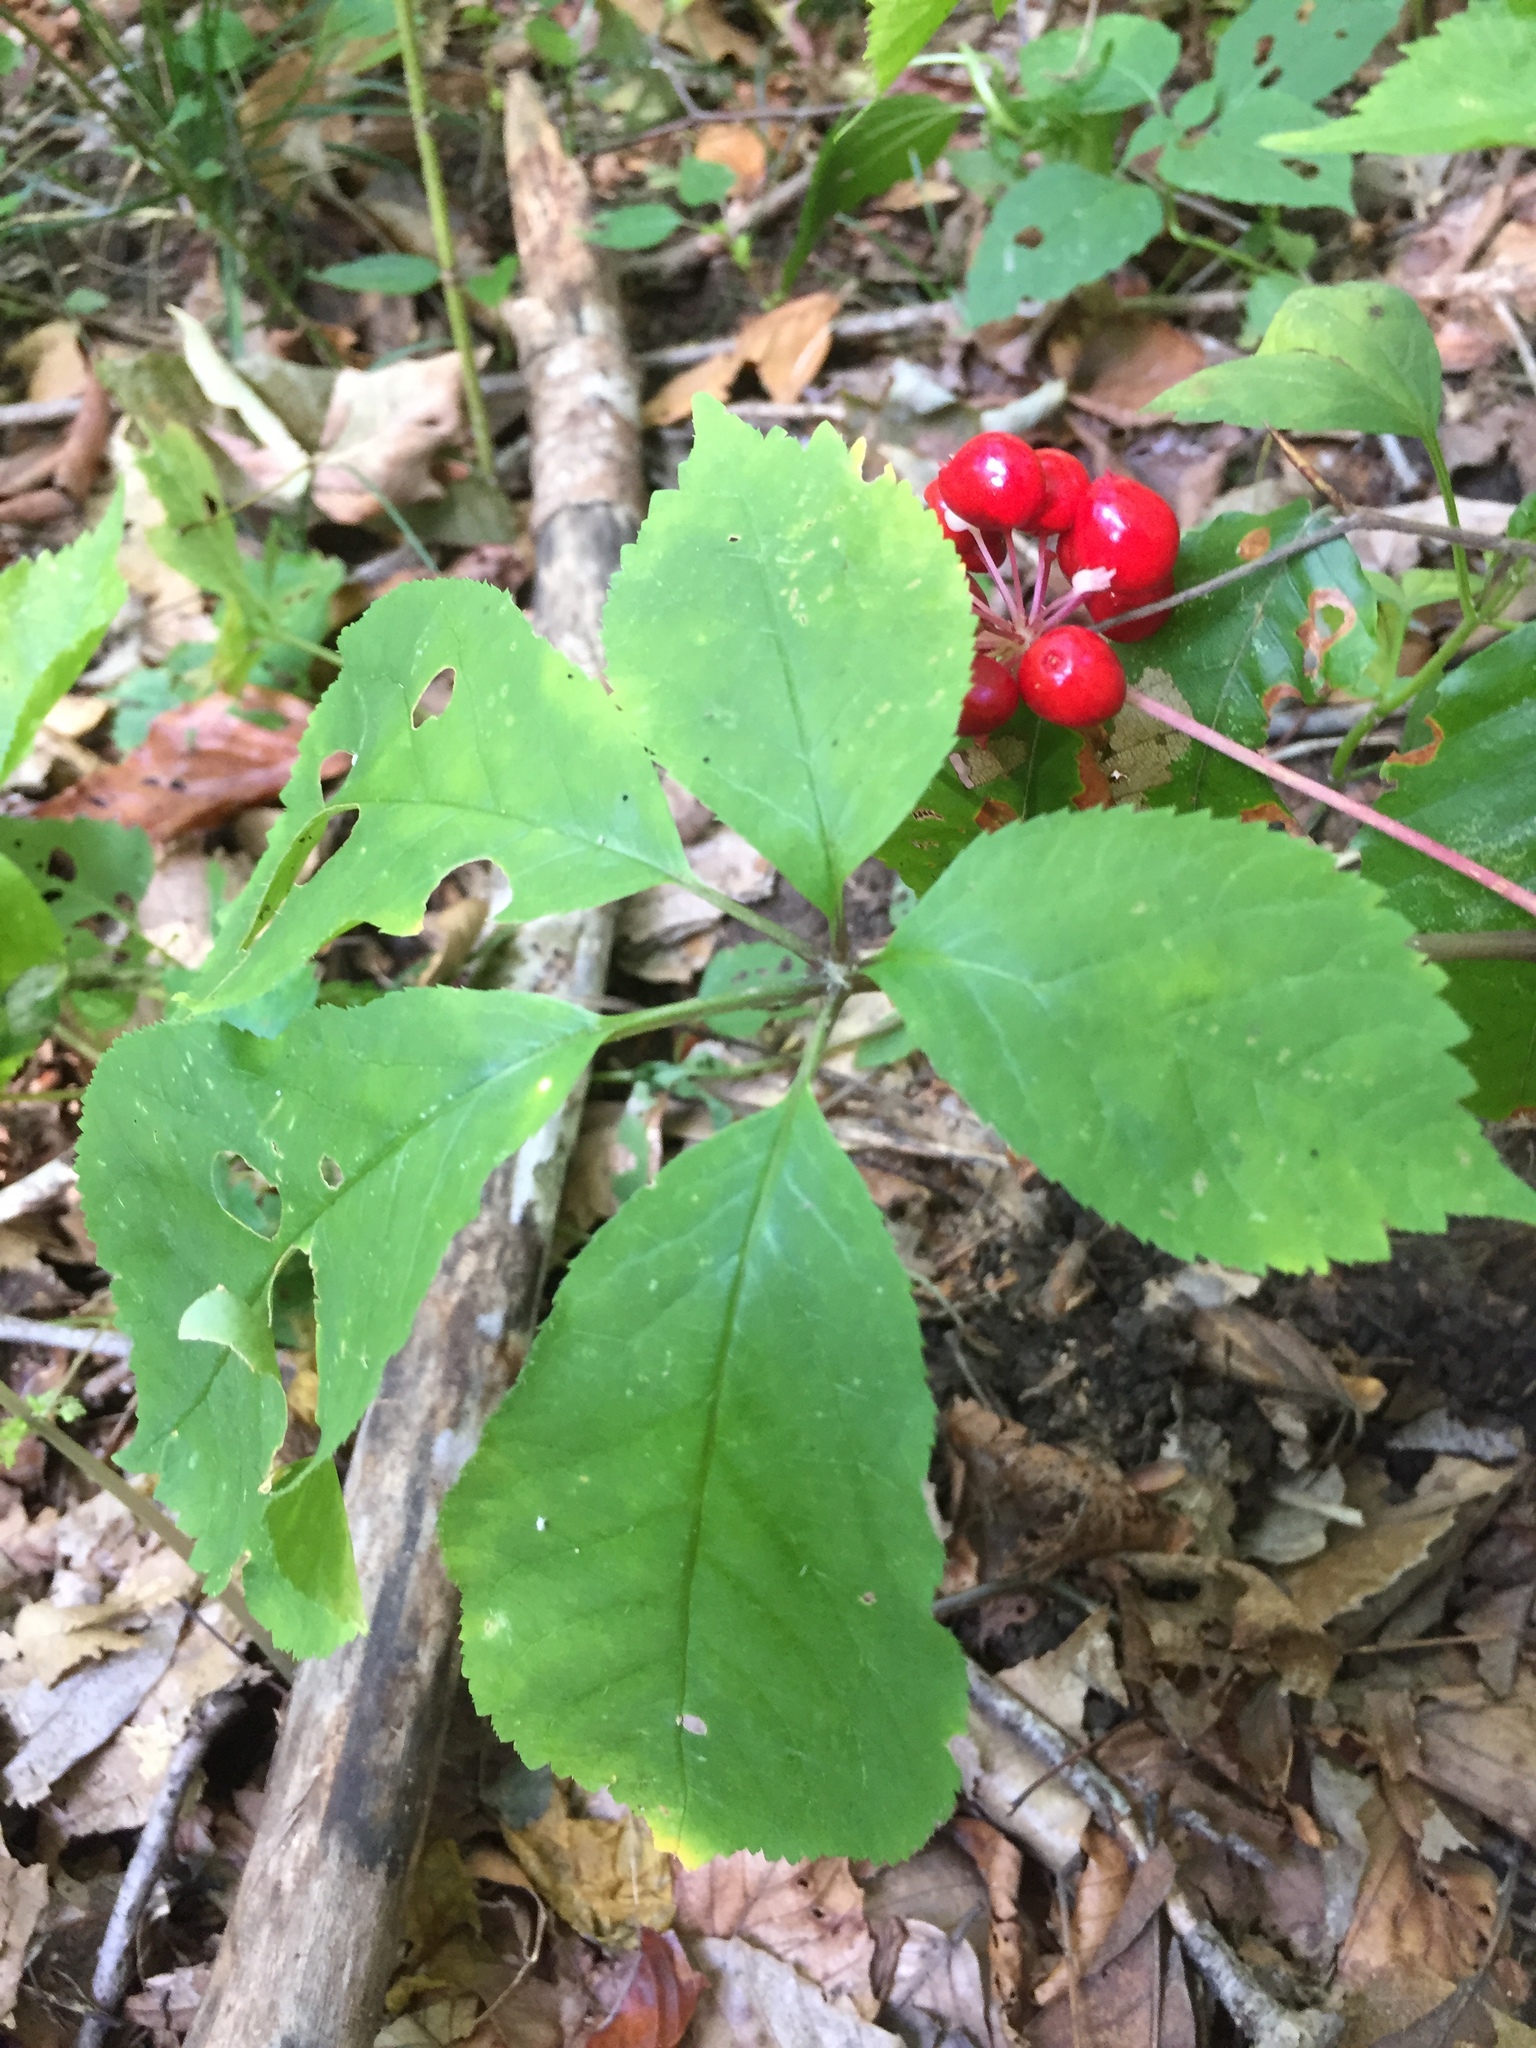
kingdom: Plantae
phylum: Tracheophyta
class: Magnoliopsida
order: Apiales
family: Araliaceae
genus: Panax
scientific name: Panax quinquefolius
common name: American ginseng
